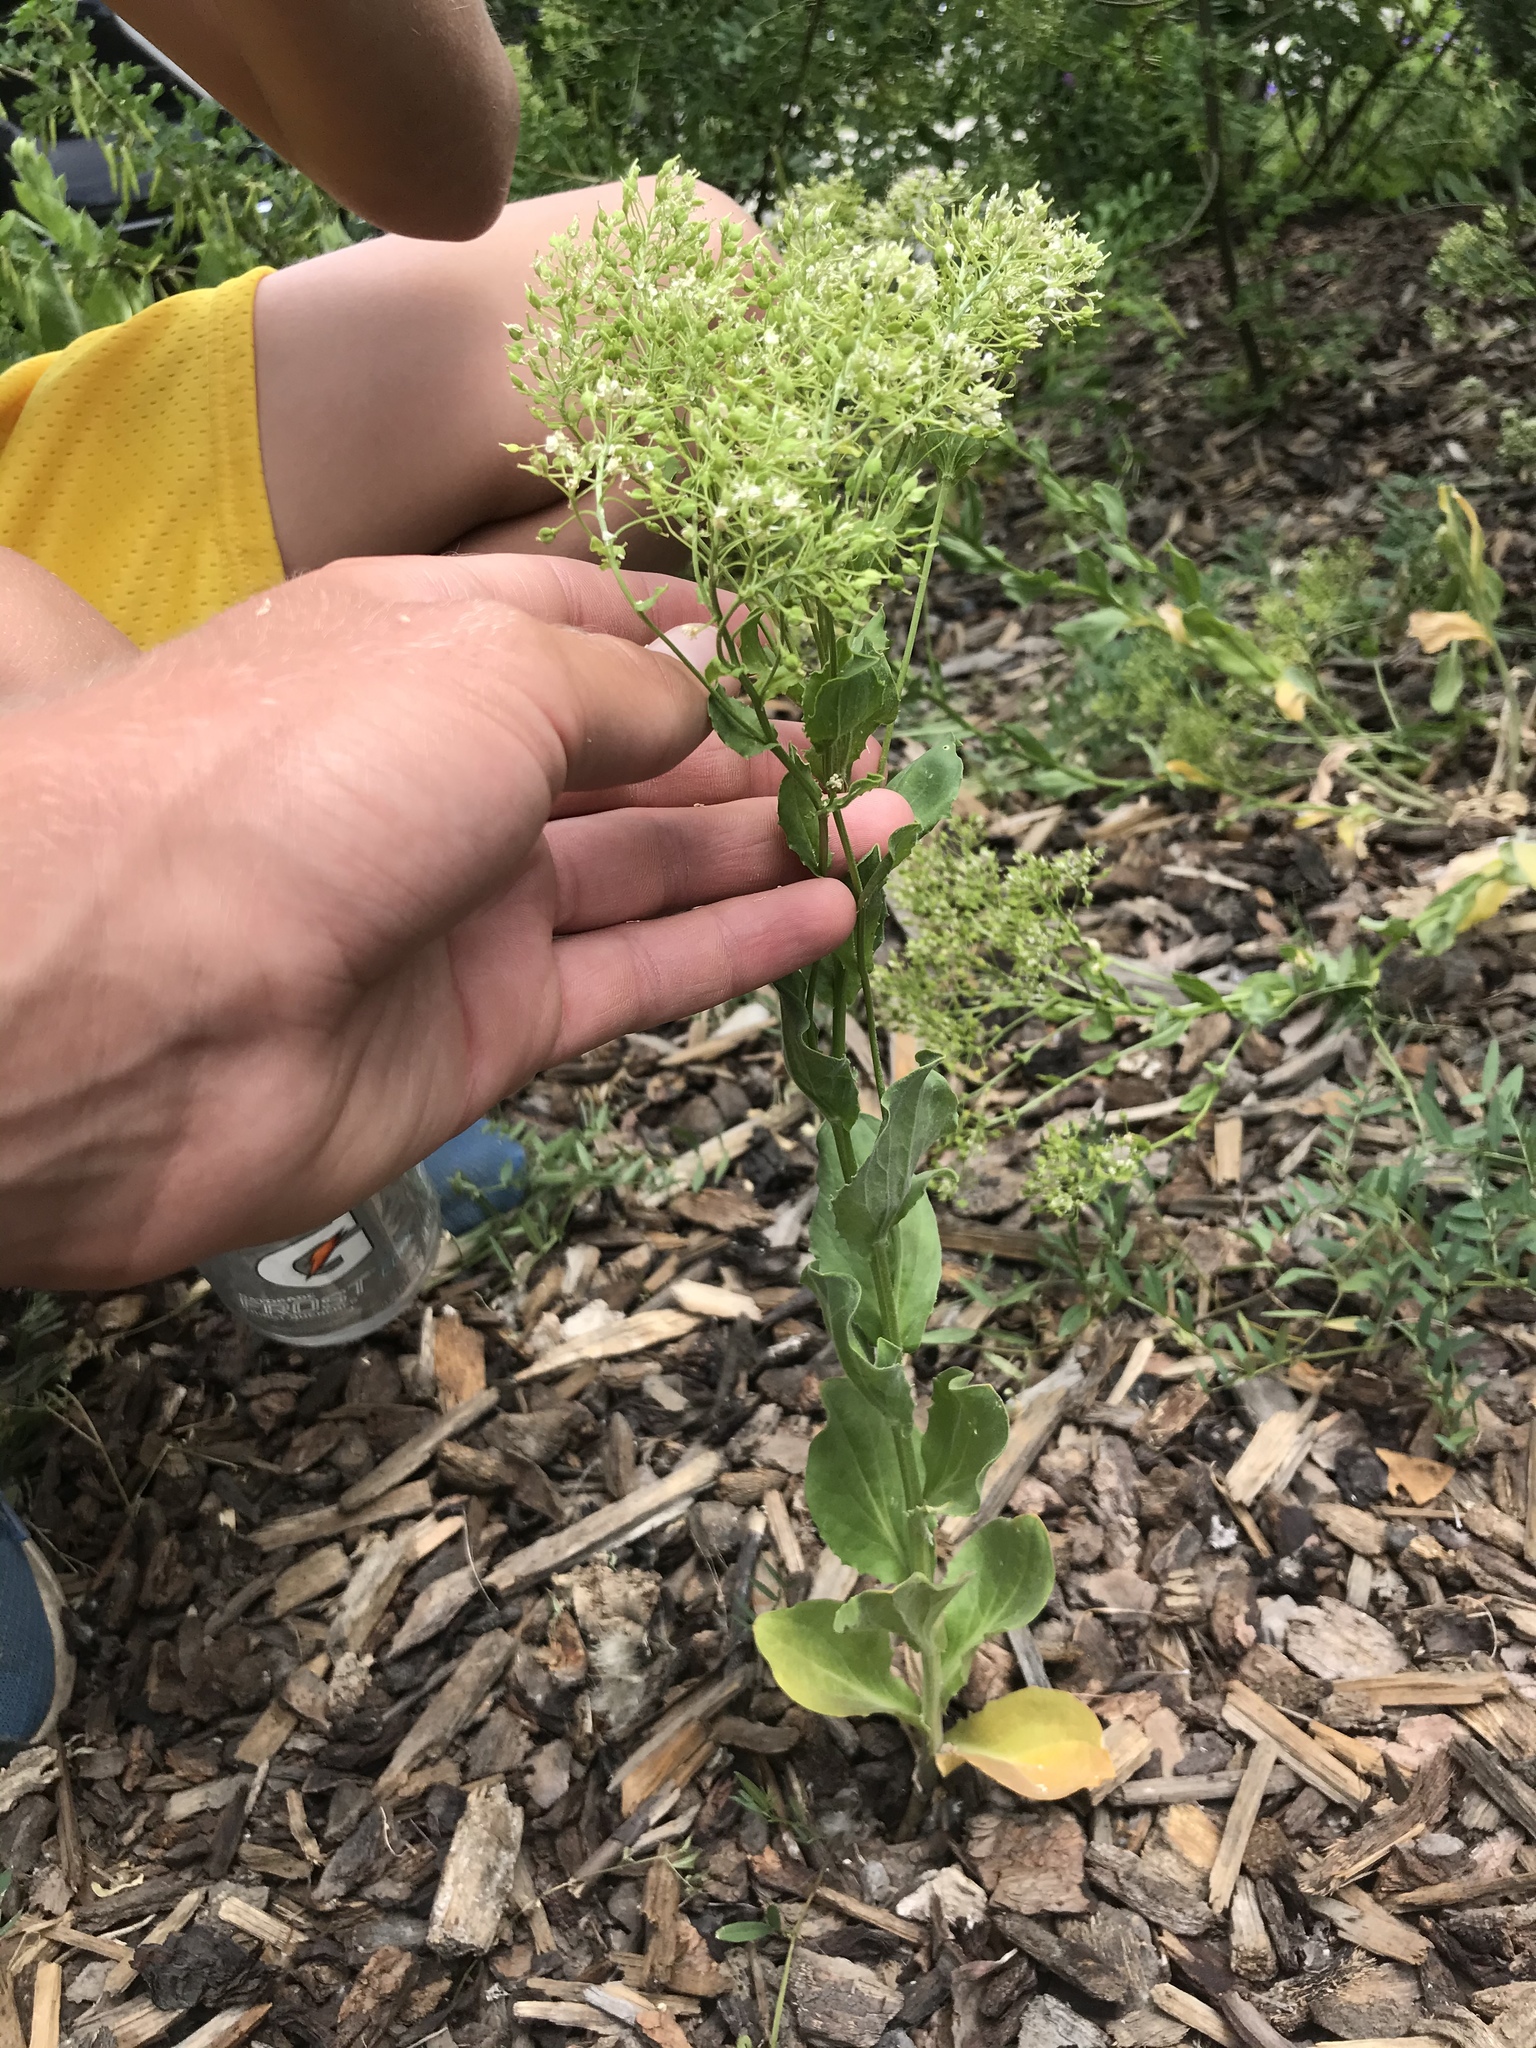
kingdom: Plantae
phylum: Tracheophyta
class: Magnoliopsida
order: Brassicales
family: Brassicaceae
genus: Lepidium
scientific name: Lepidium draba
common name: Hoary cress
